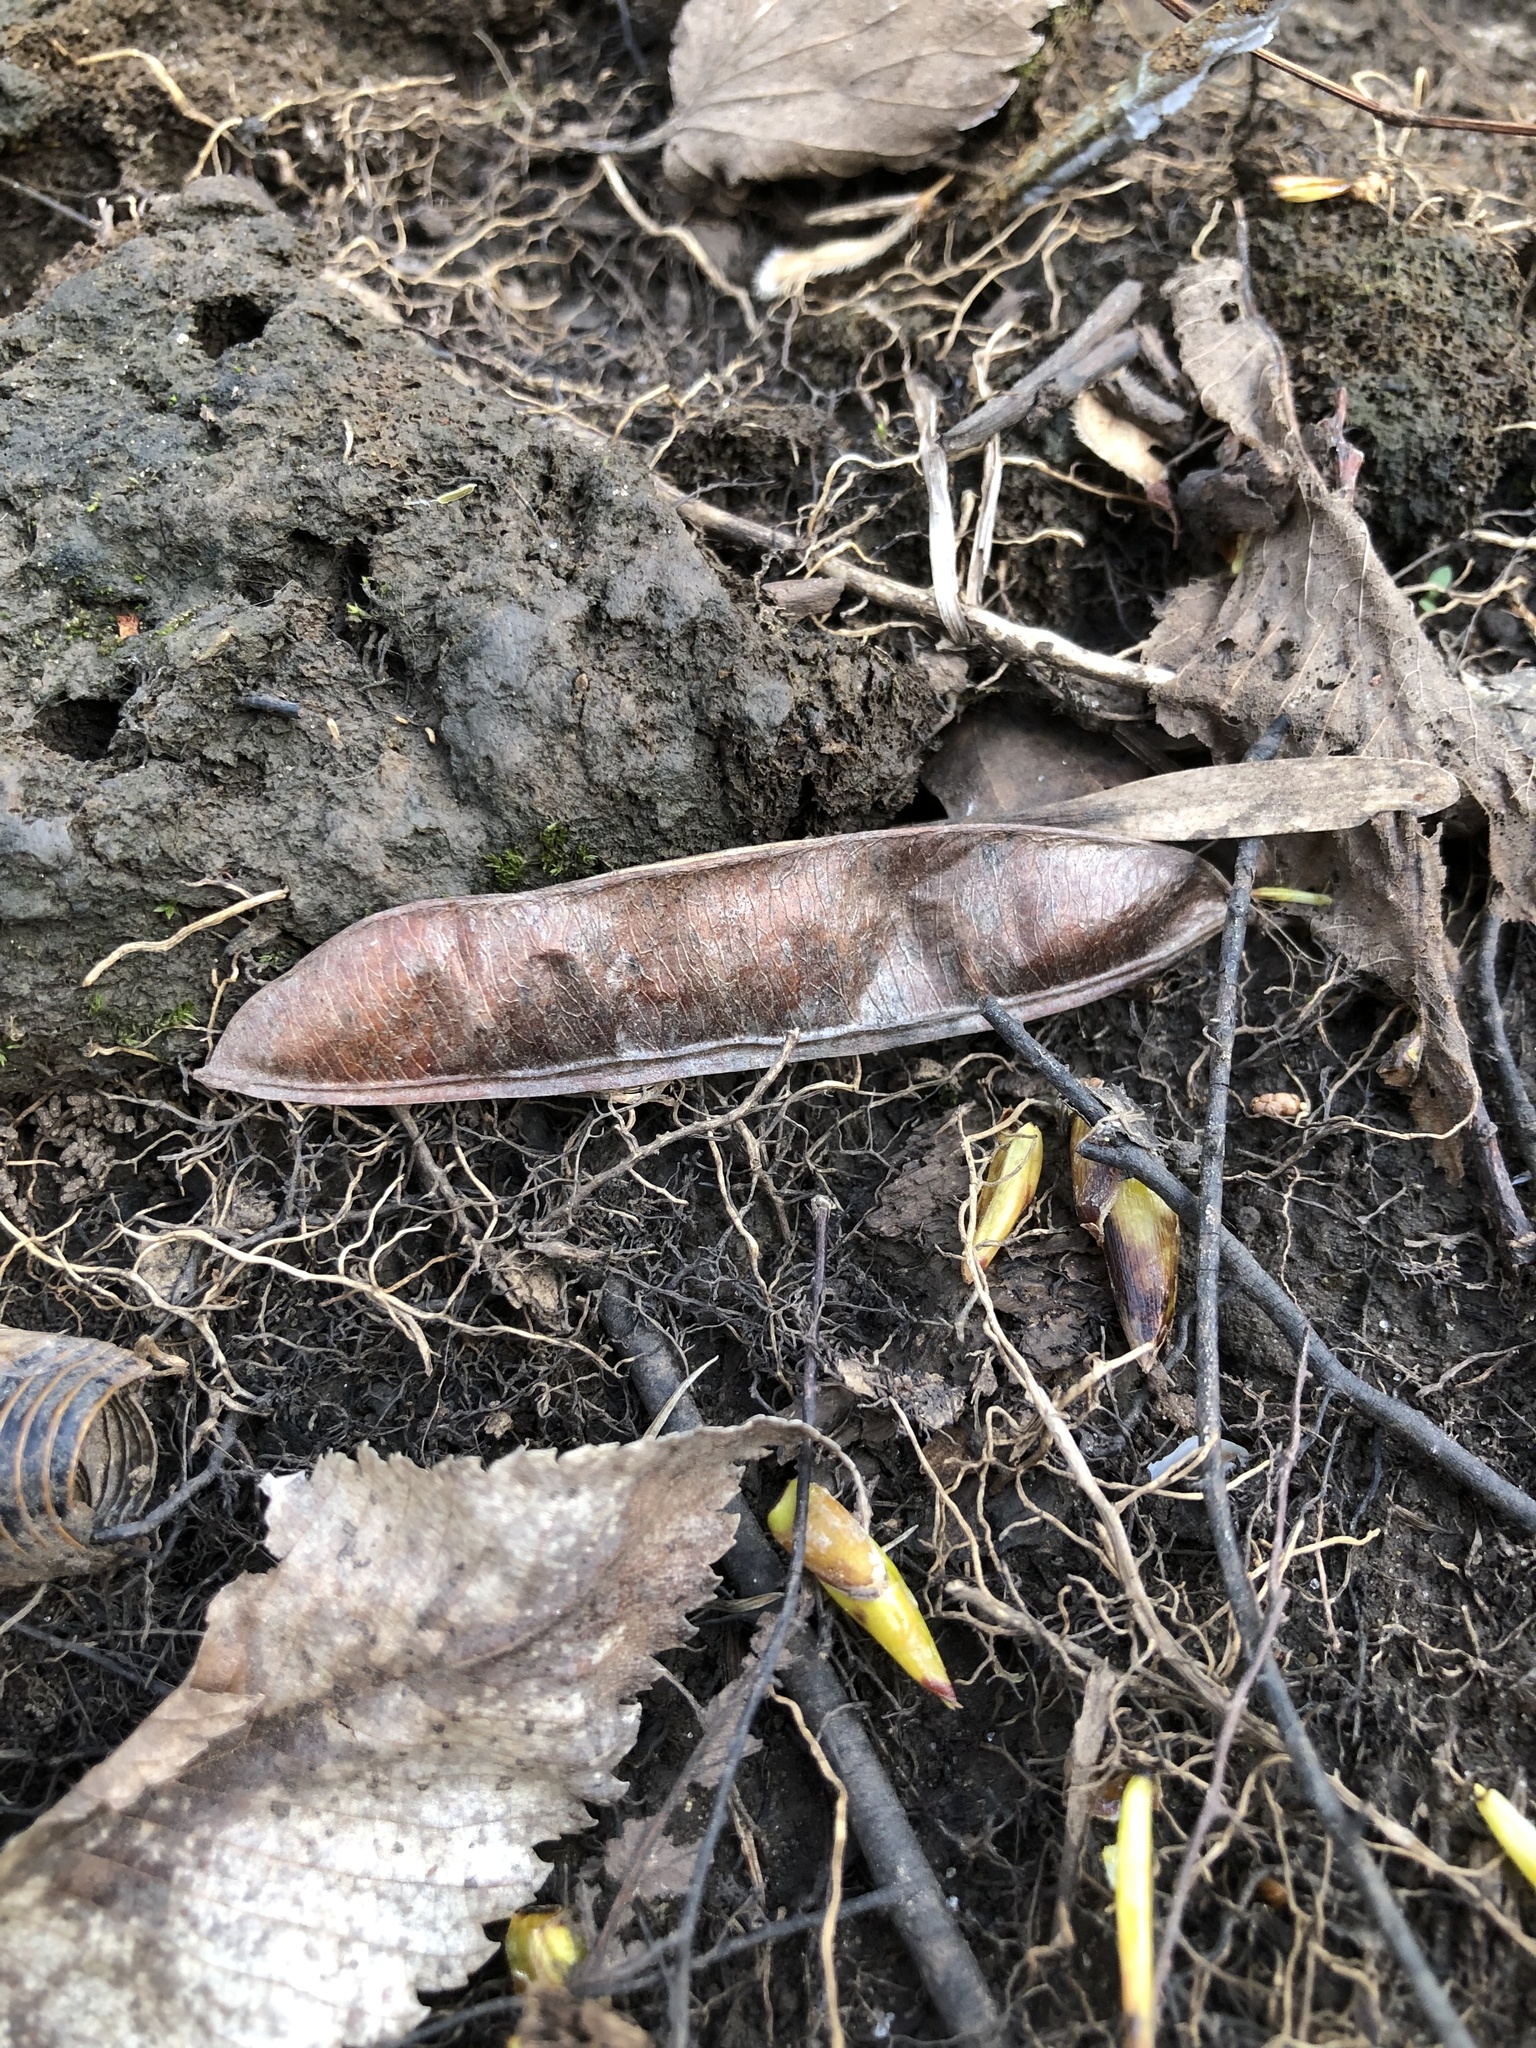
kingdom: Plantae
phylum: Tracheophyta
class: Magnoliopsida
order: Fabales
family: Fabaceae
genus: Cercis
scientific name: Cercis canadensis
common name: Eastern redbud
